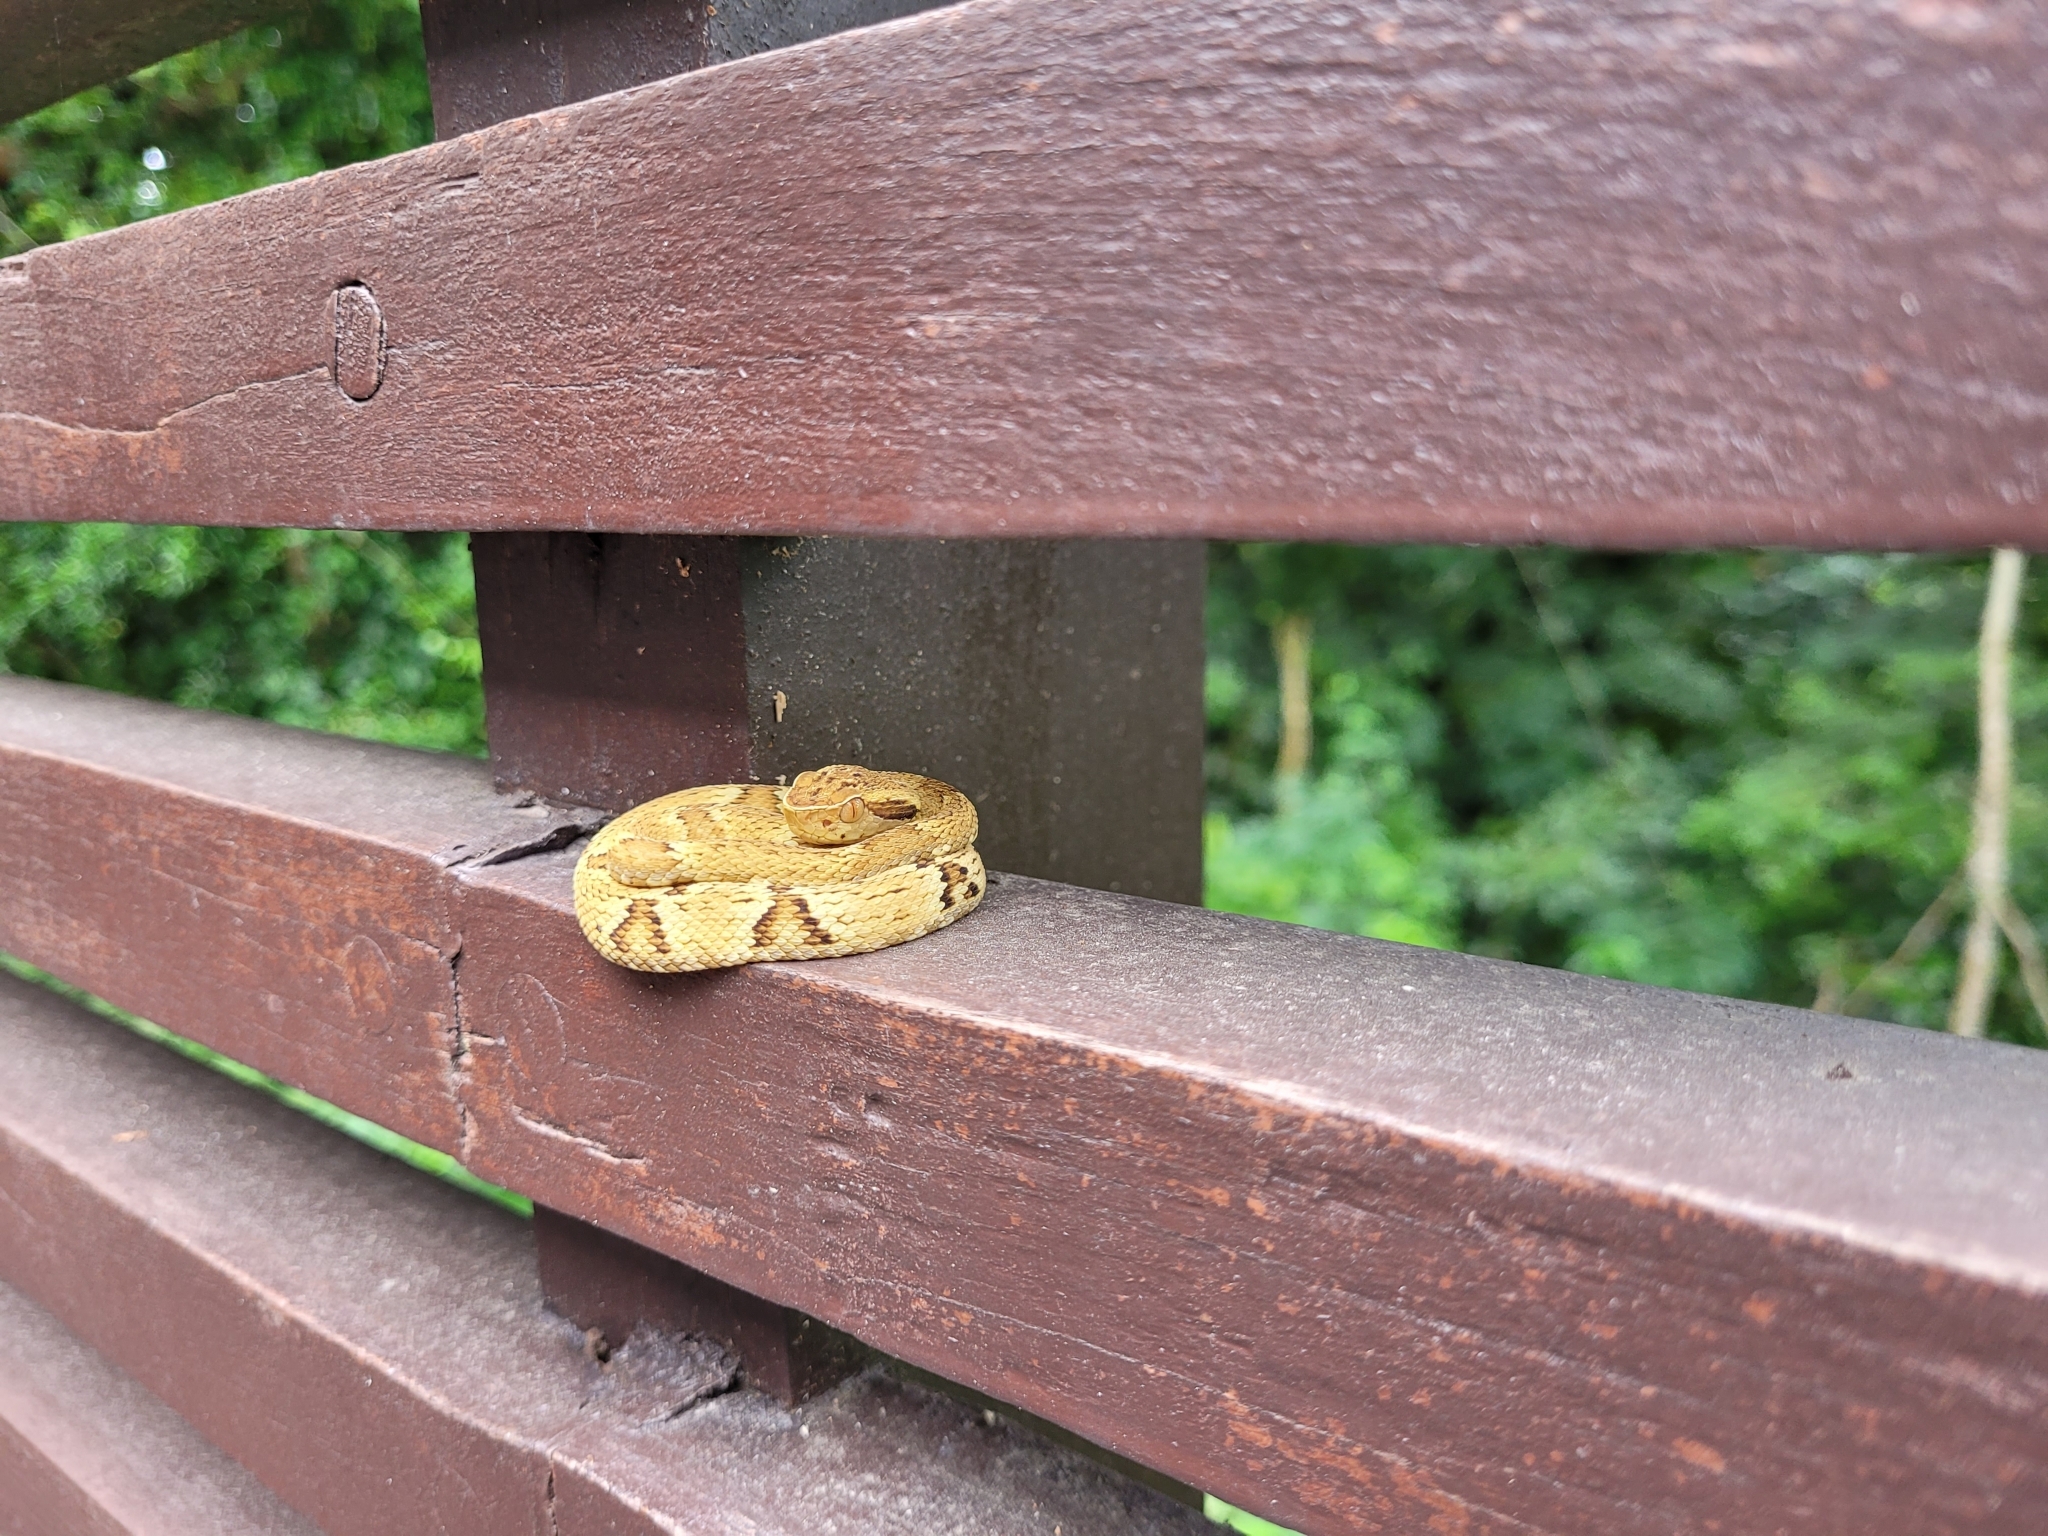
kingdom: Animalia
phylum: Chordata
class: Squamata
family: Viperidae
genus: Bothrops
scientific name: Bothrops jararaca
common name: Jararaca
